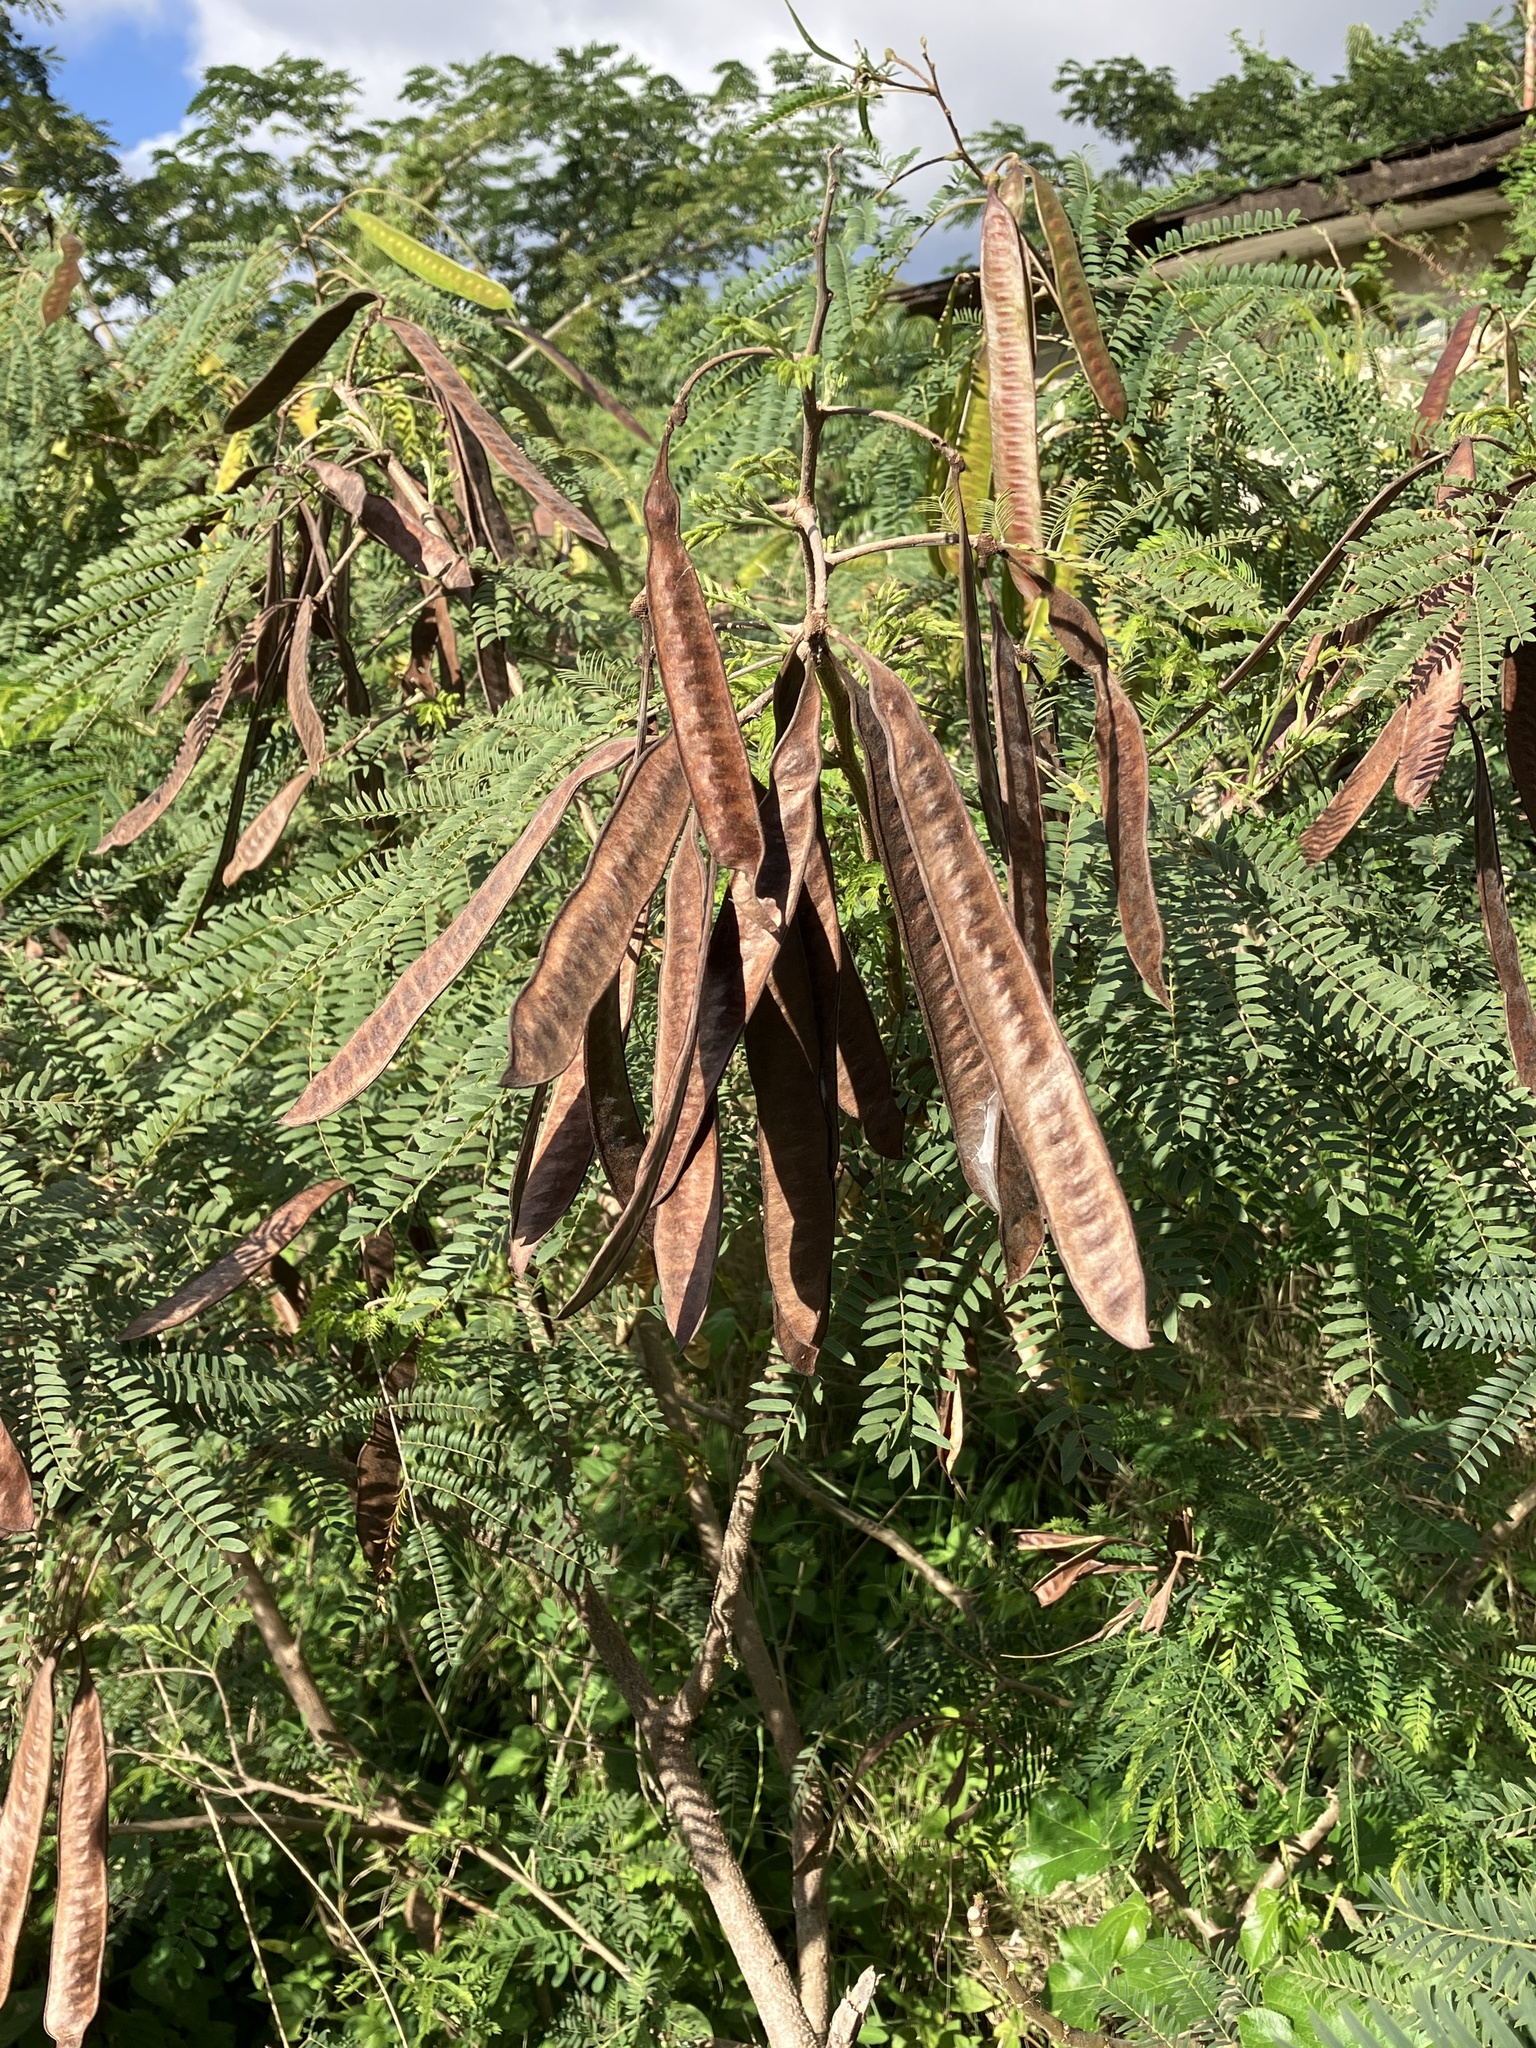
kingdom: Plantae
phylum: Tracheophyta
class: Magnoliopsida
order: Fabales
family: Fabaceae
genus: Leucaena
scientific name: Leucaena leucocephala
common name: White leadtree
